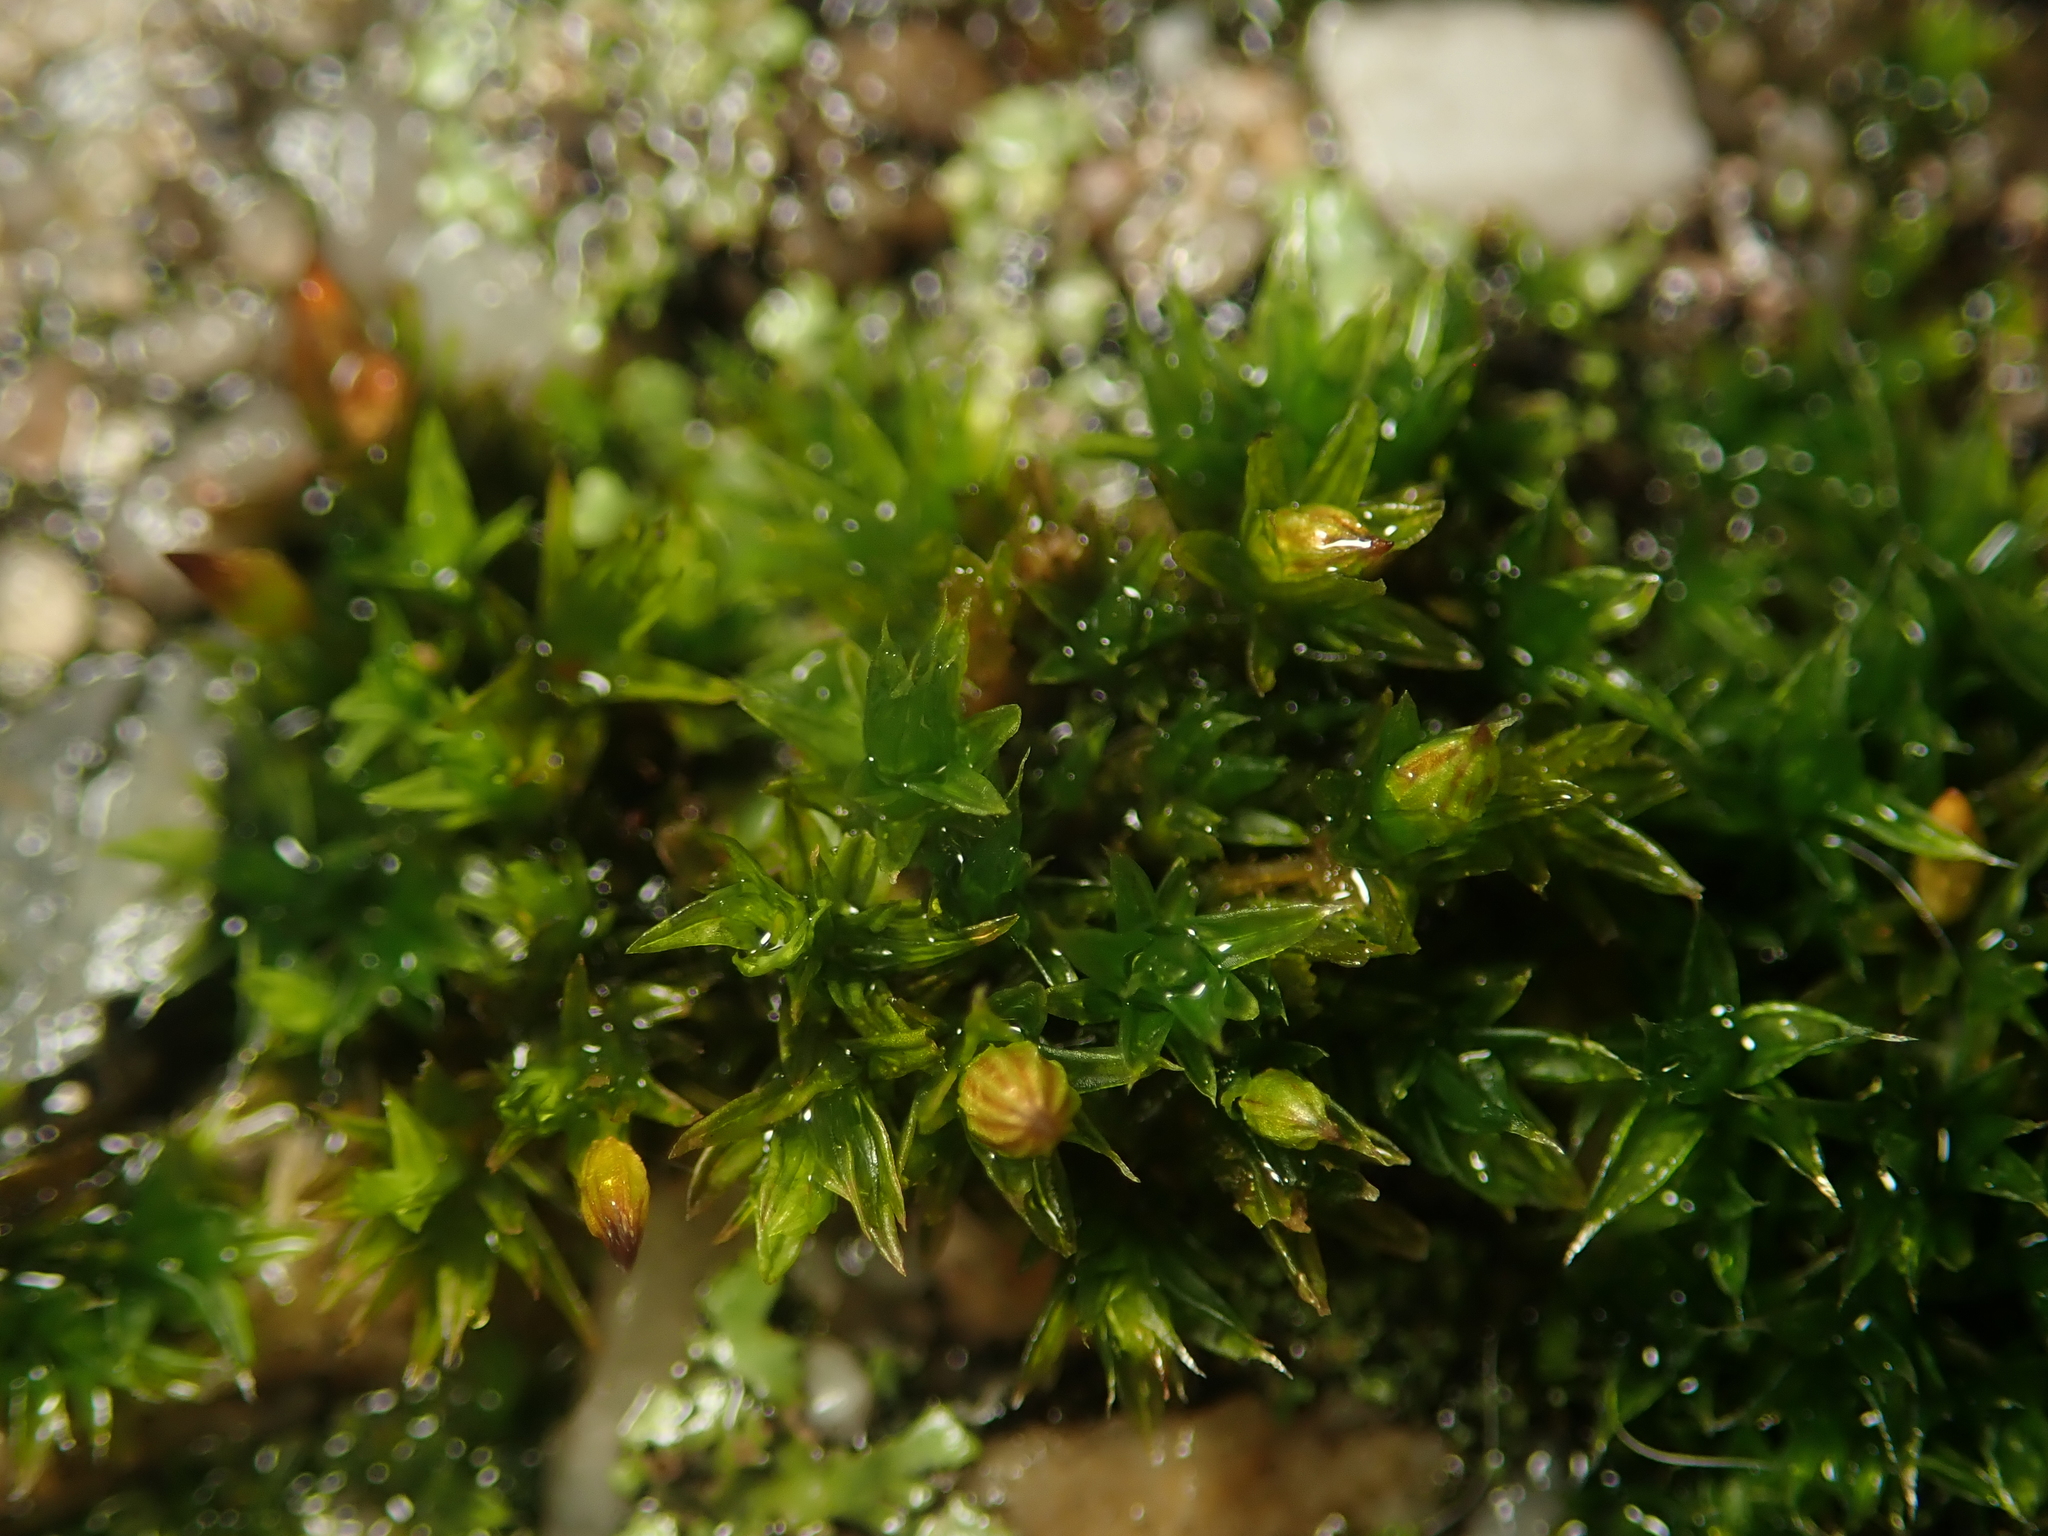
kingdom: Plantae
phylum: Bryophyta
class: Bryopsida
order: Orthotrichales
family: Orthotrichaceae
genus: Orthotrichum
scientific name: Orthotrichum diaphanum
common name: White-tipped bristle-moss
